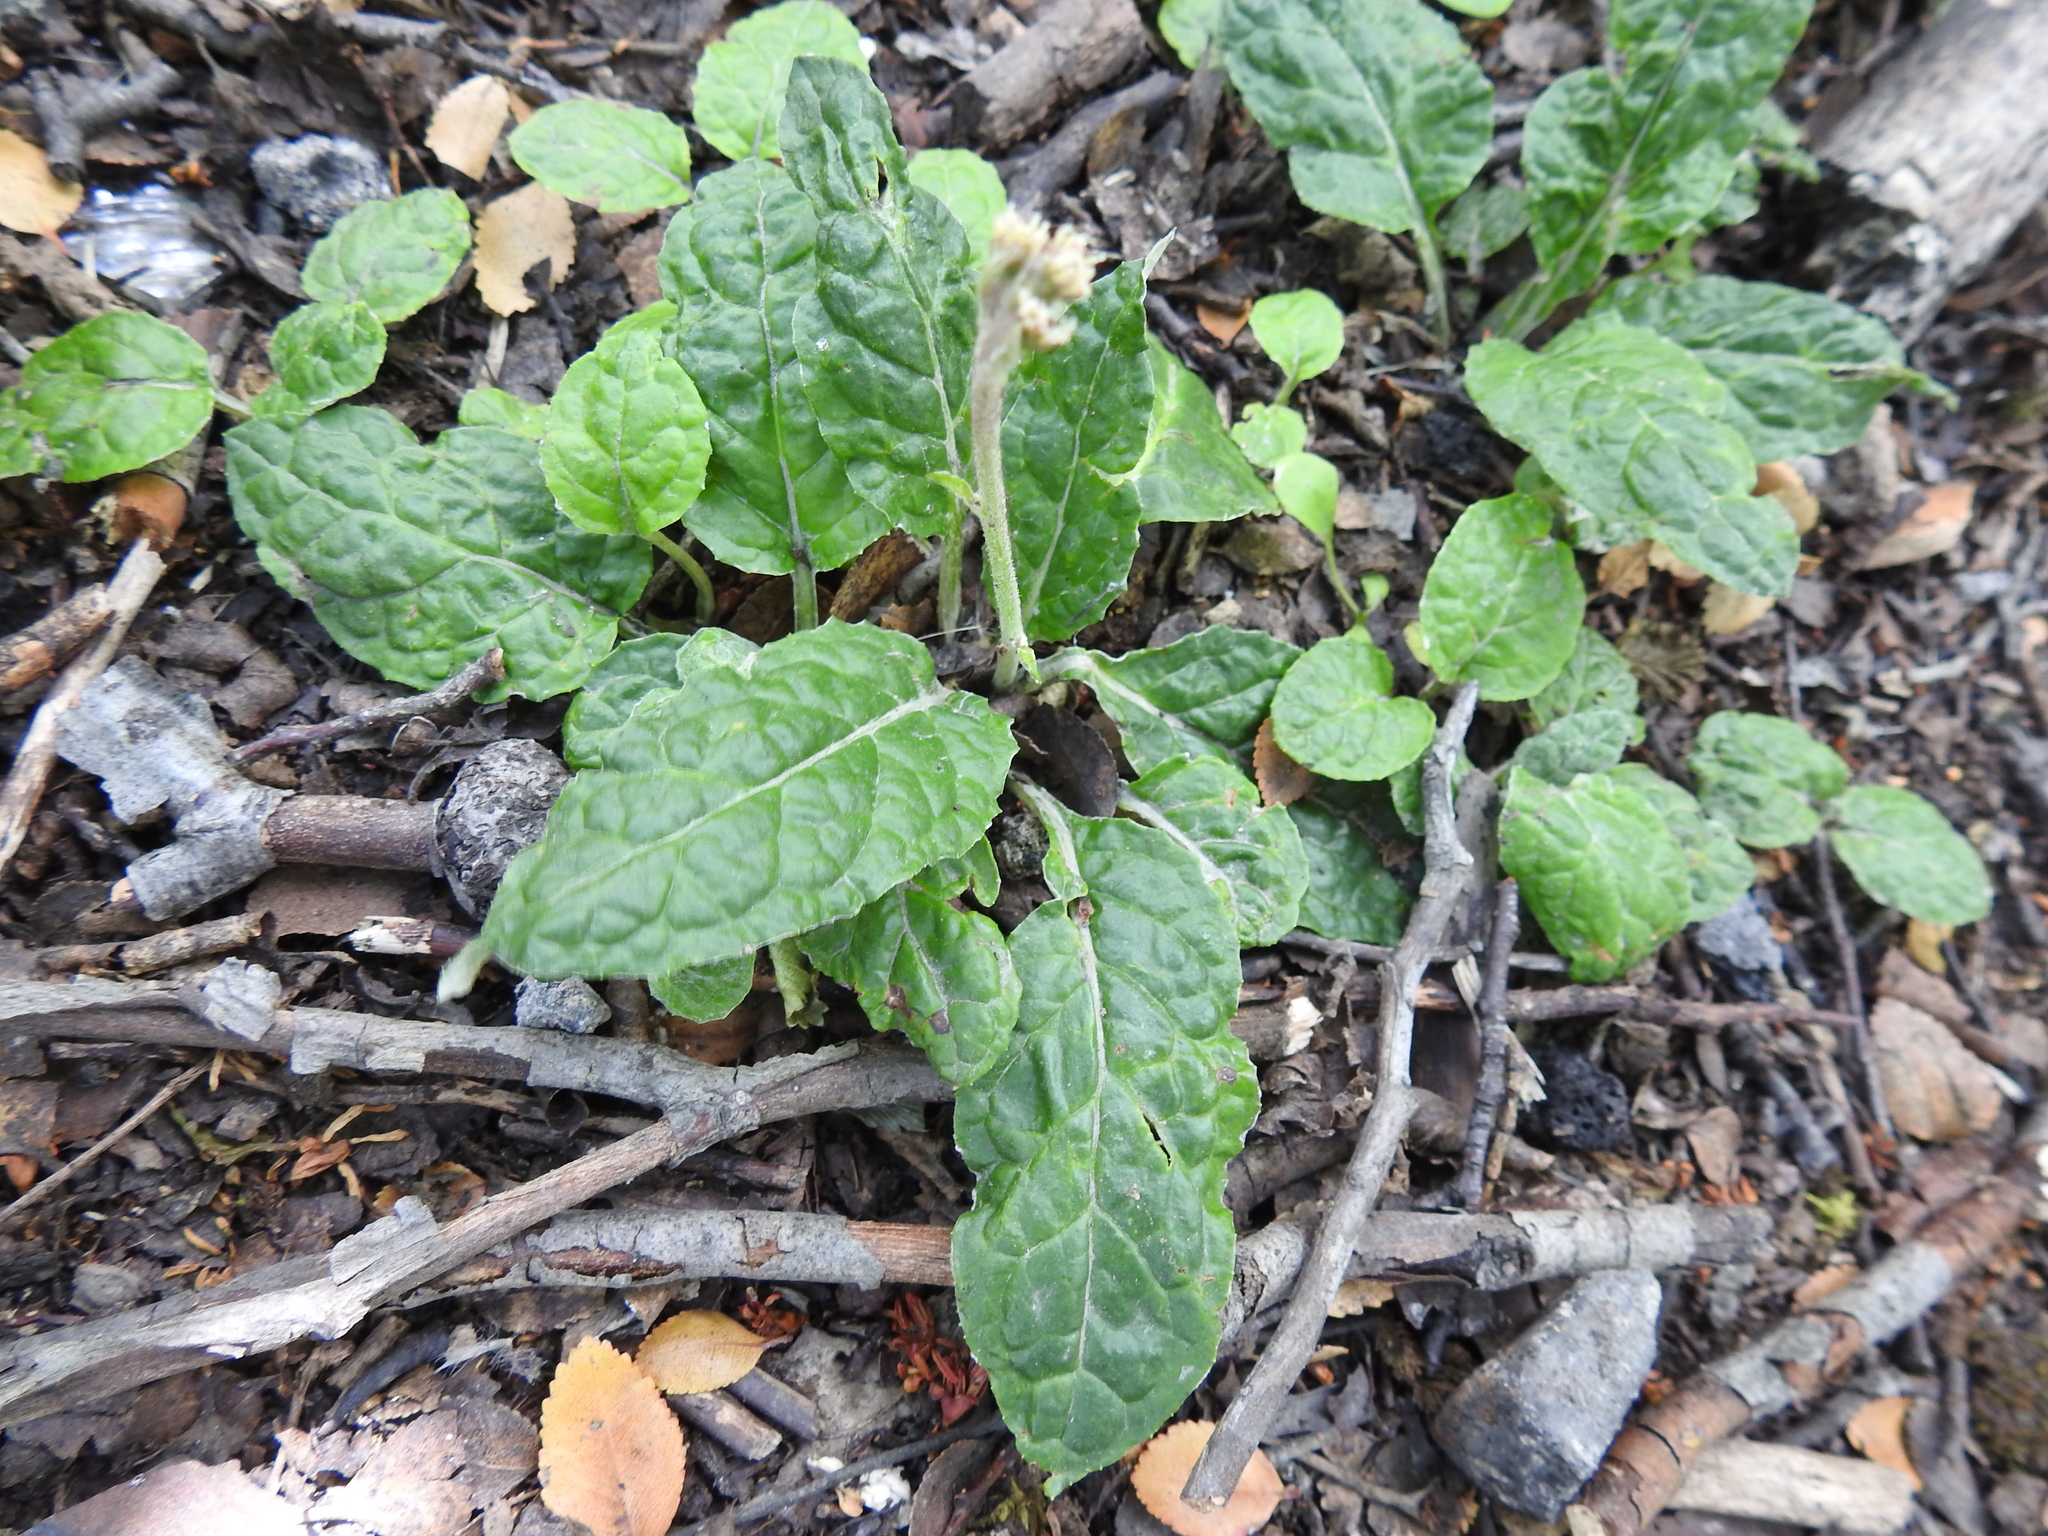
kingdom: Plantae
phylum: Tracheophyta
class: Magnoliopsida
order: Asterales
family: Asteraceae
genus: Adenocaulon
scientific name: Adenocaulon chilense
